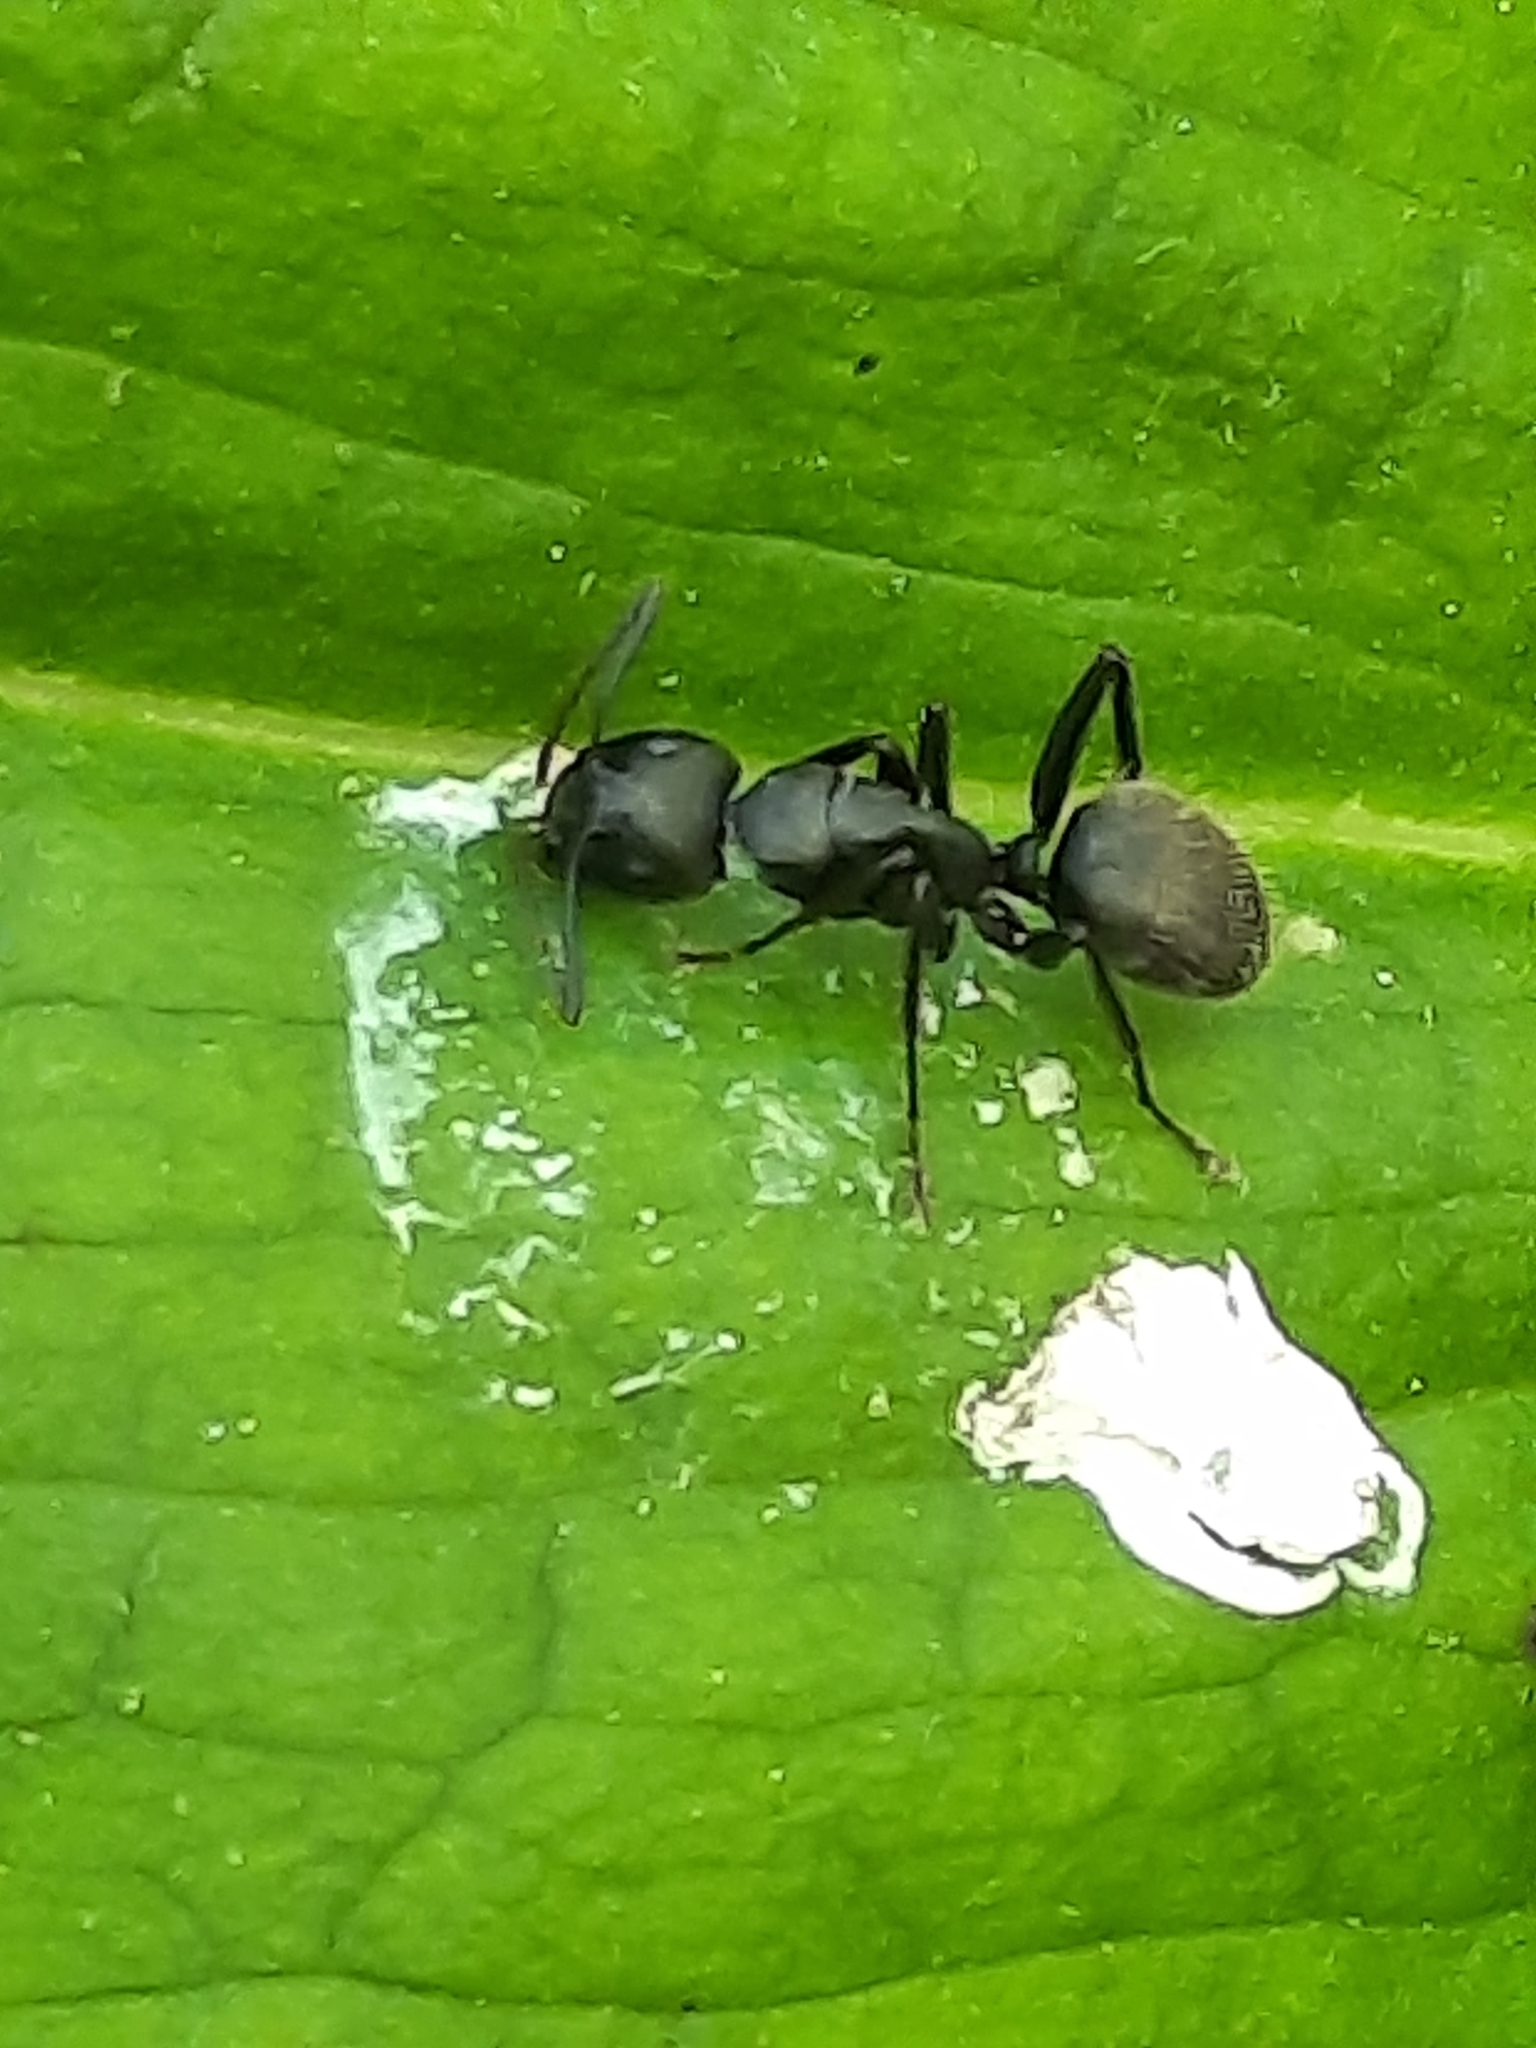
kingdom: Animalia
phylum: Arthropoda
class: Insecta
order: Hymenoptera
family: Formicidae
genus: Camponotus
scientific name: Camponotus pennsylvanicus
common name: Black carpenter ant
